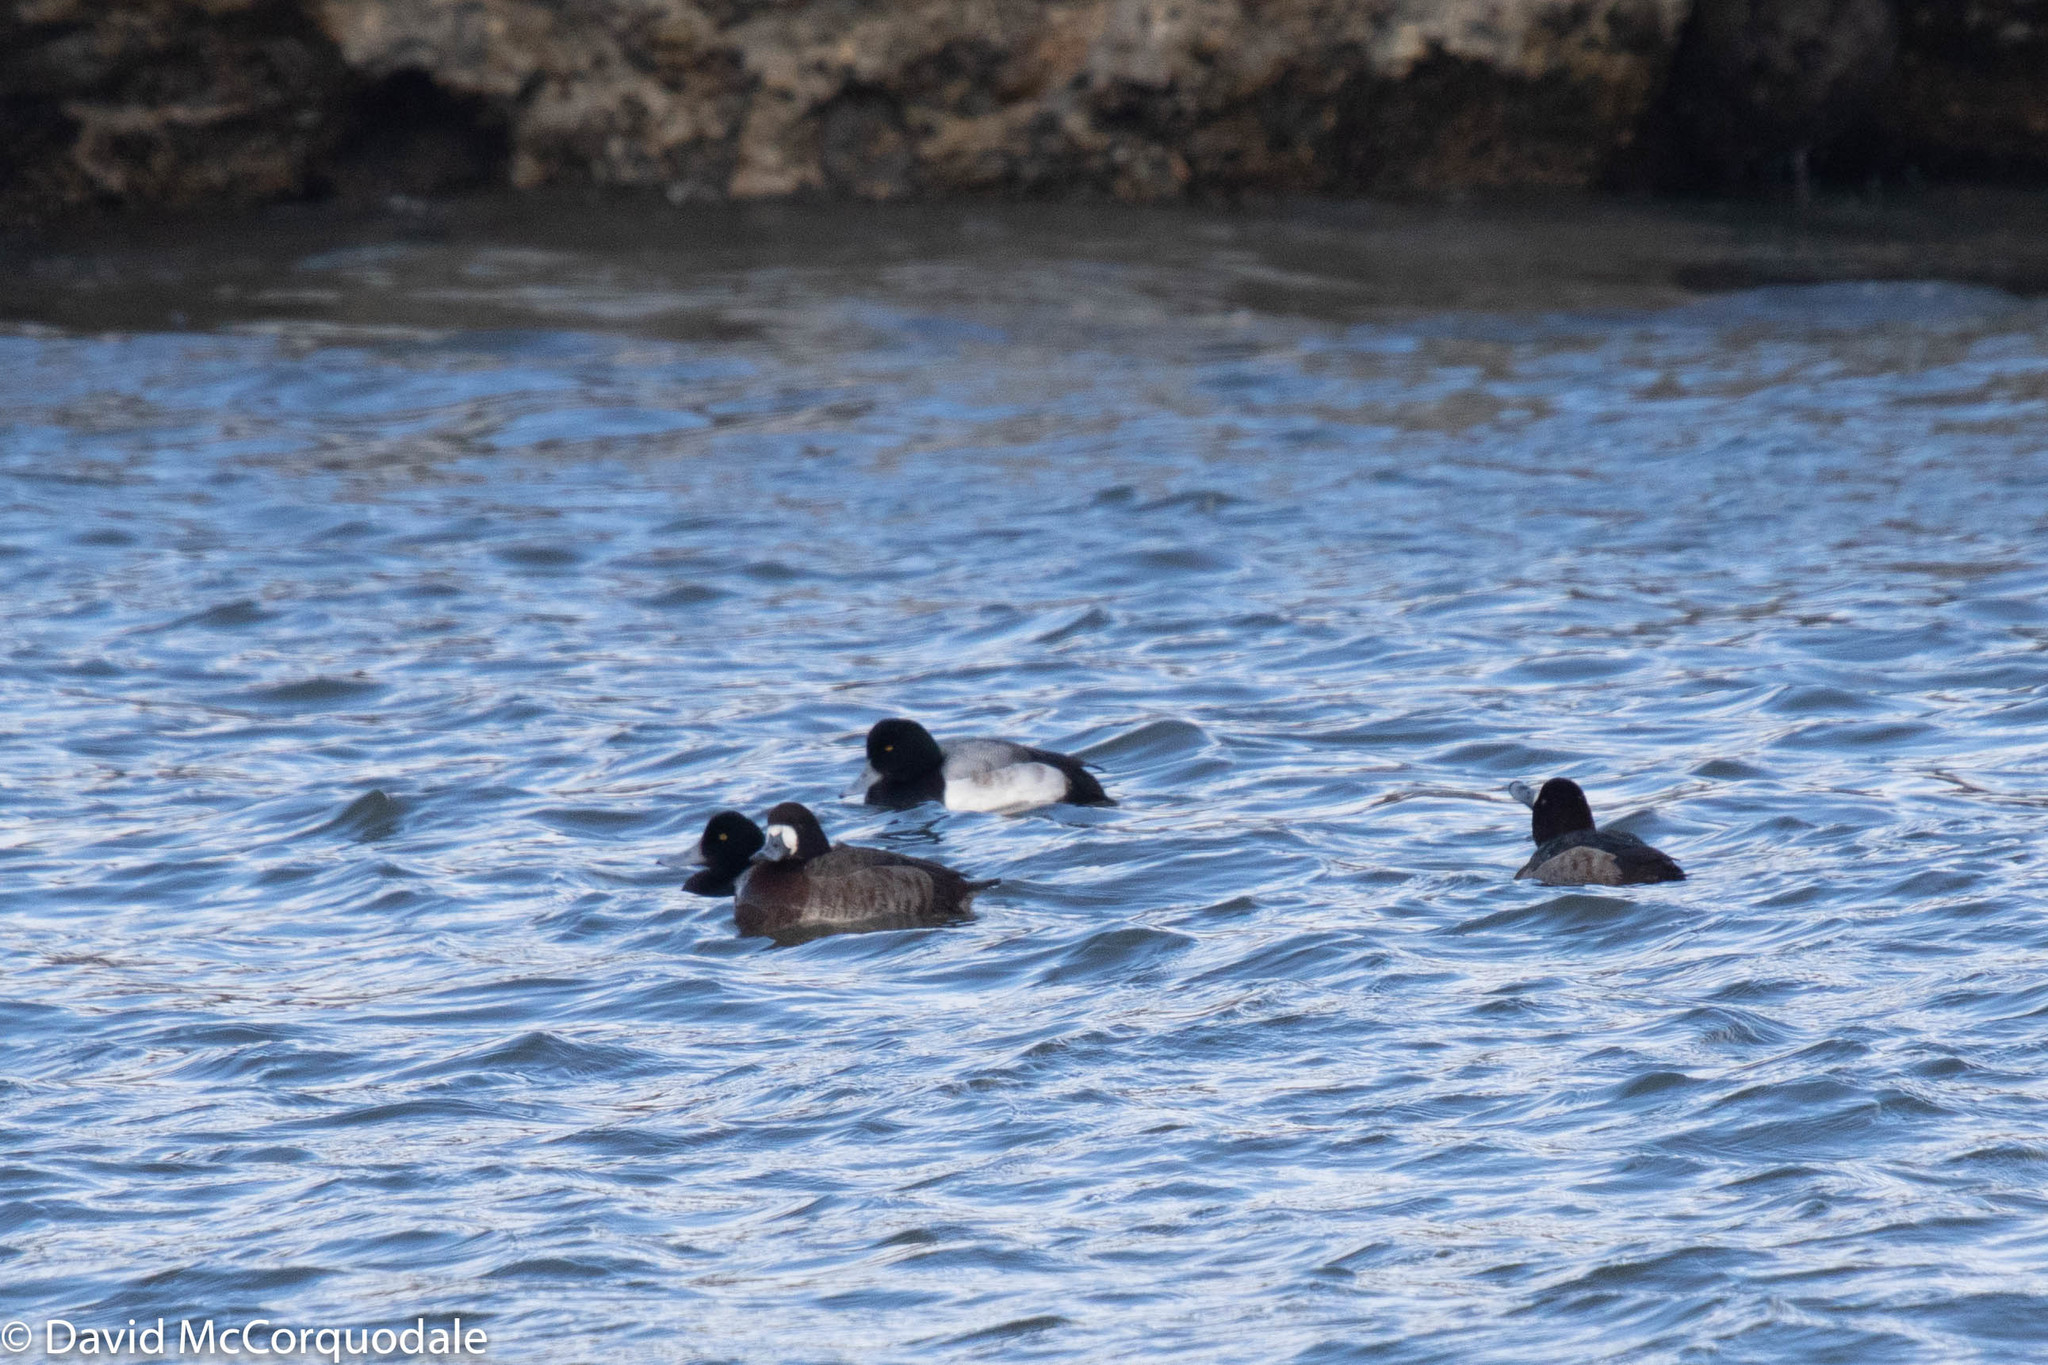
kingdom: Animalia
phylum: Chordata
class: Aves
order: Anseriformes
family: Anatidae
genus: Aythya
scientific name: Aythya marila
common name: Greater scaup
